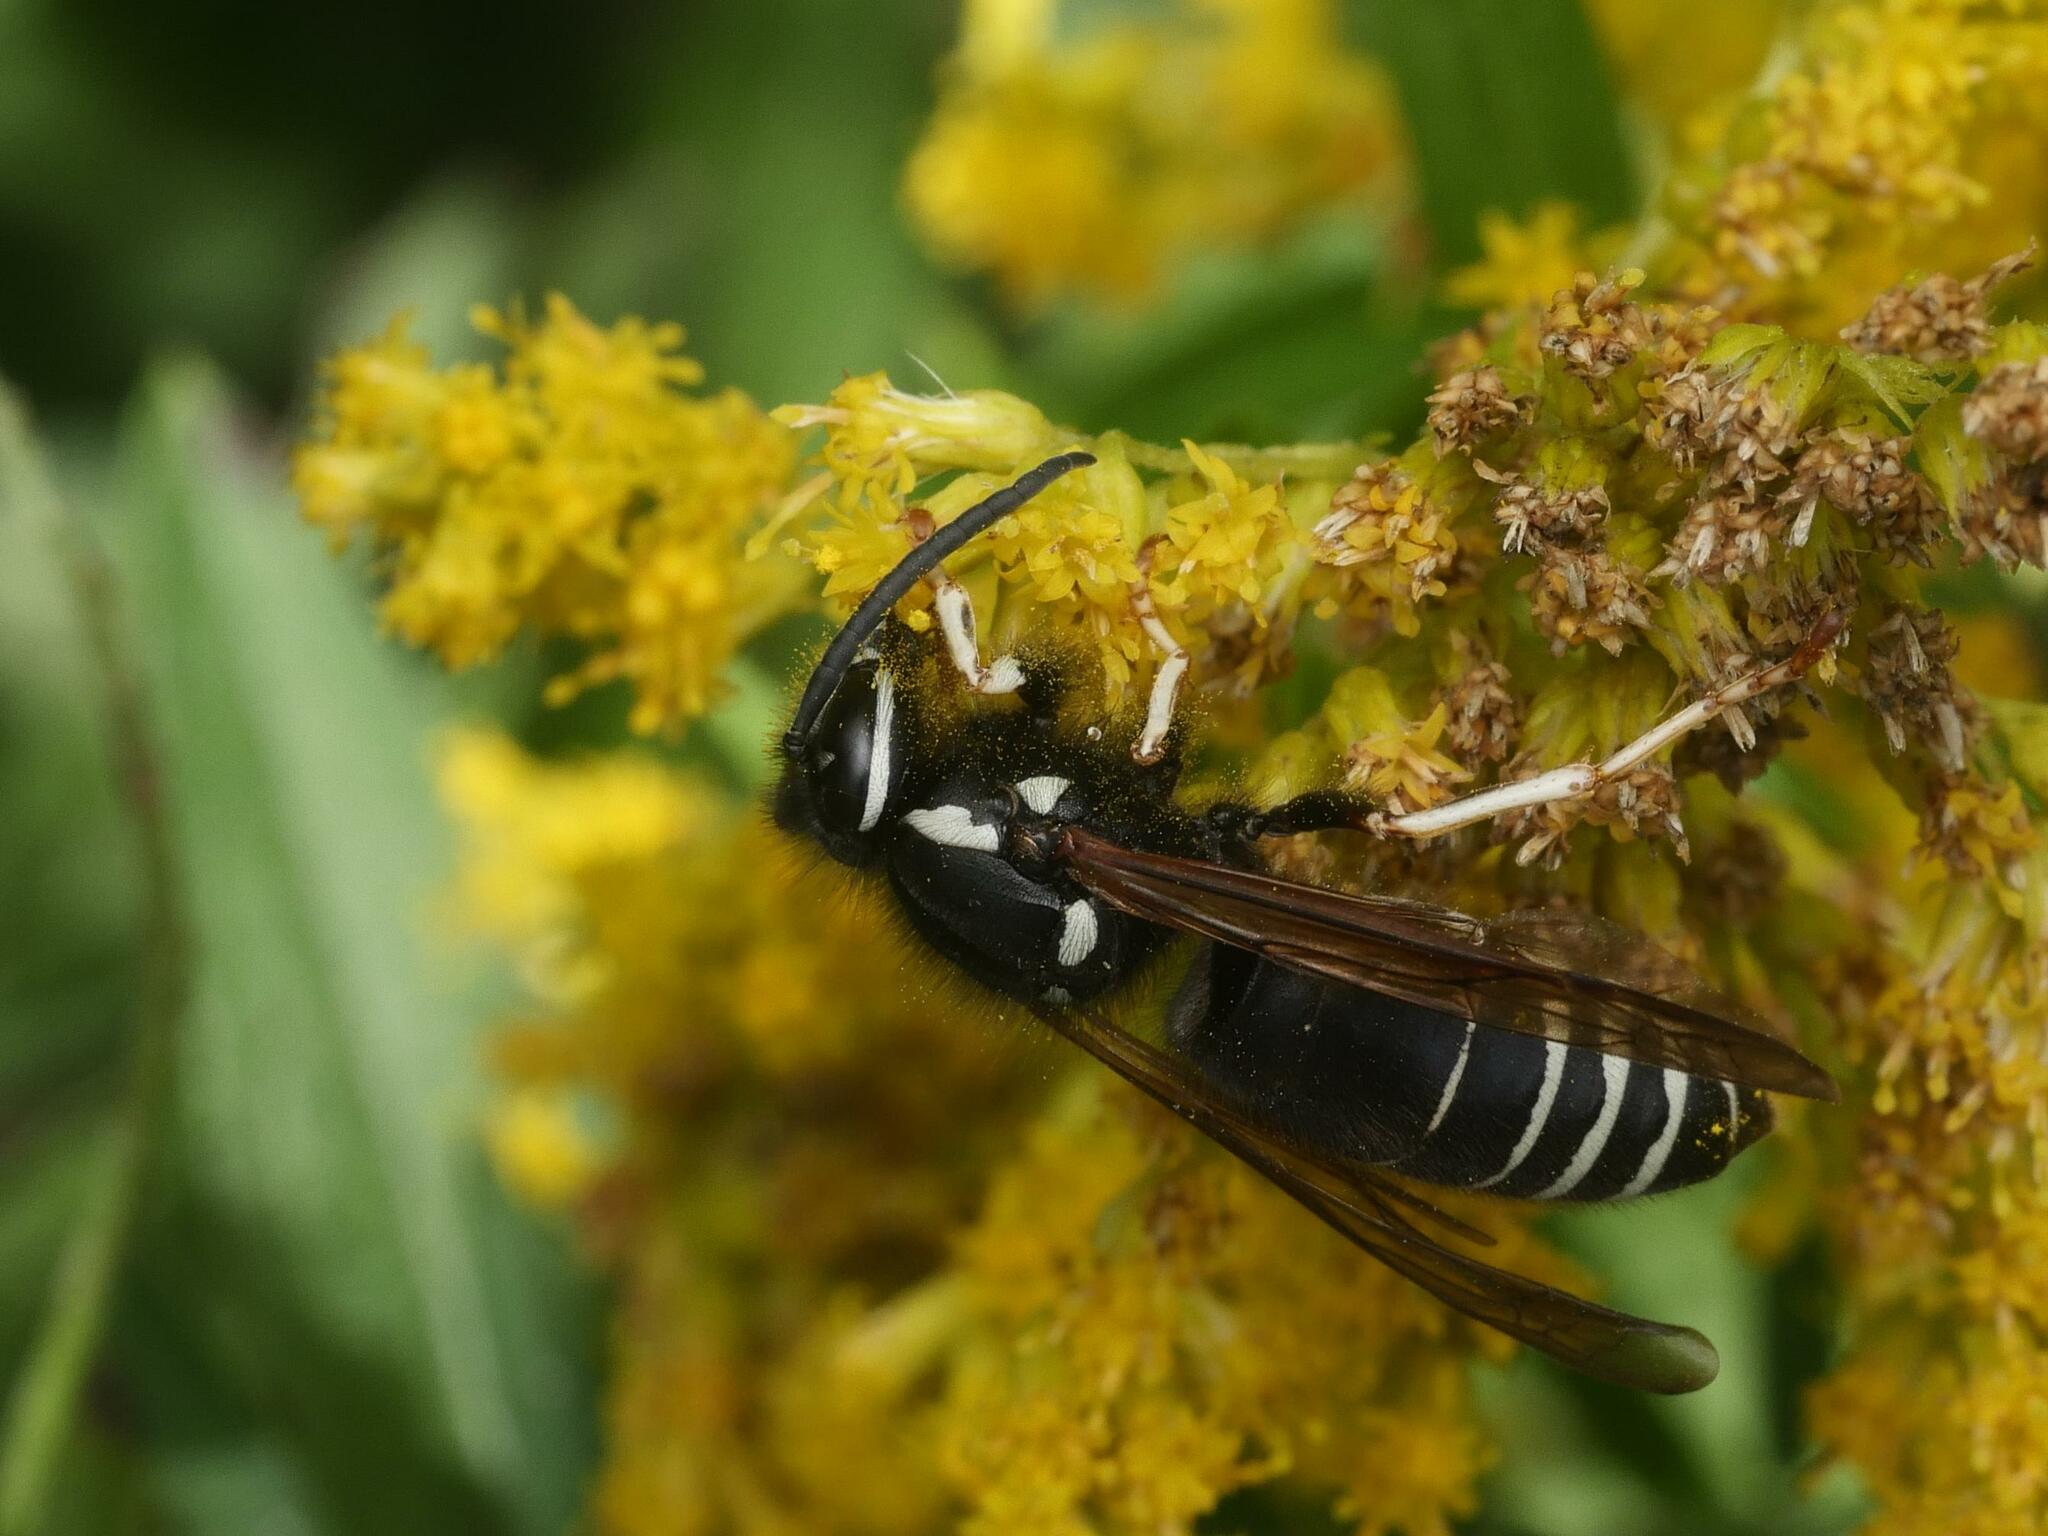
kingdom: Animalia
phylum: Arthropoda
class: Insecta
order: Hymenoptera
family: Vespidae
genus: Vespula
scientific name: Vespula consobrina
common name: Blackjacket
